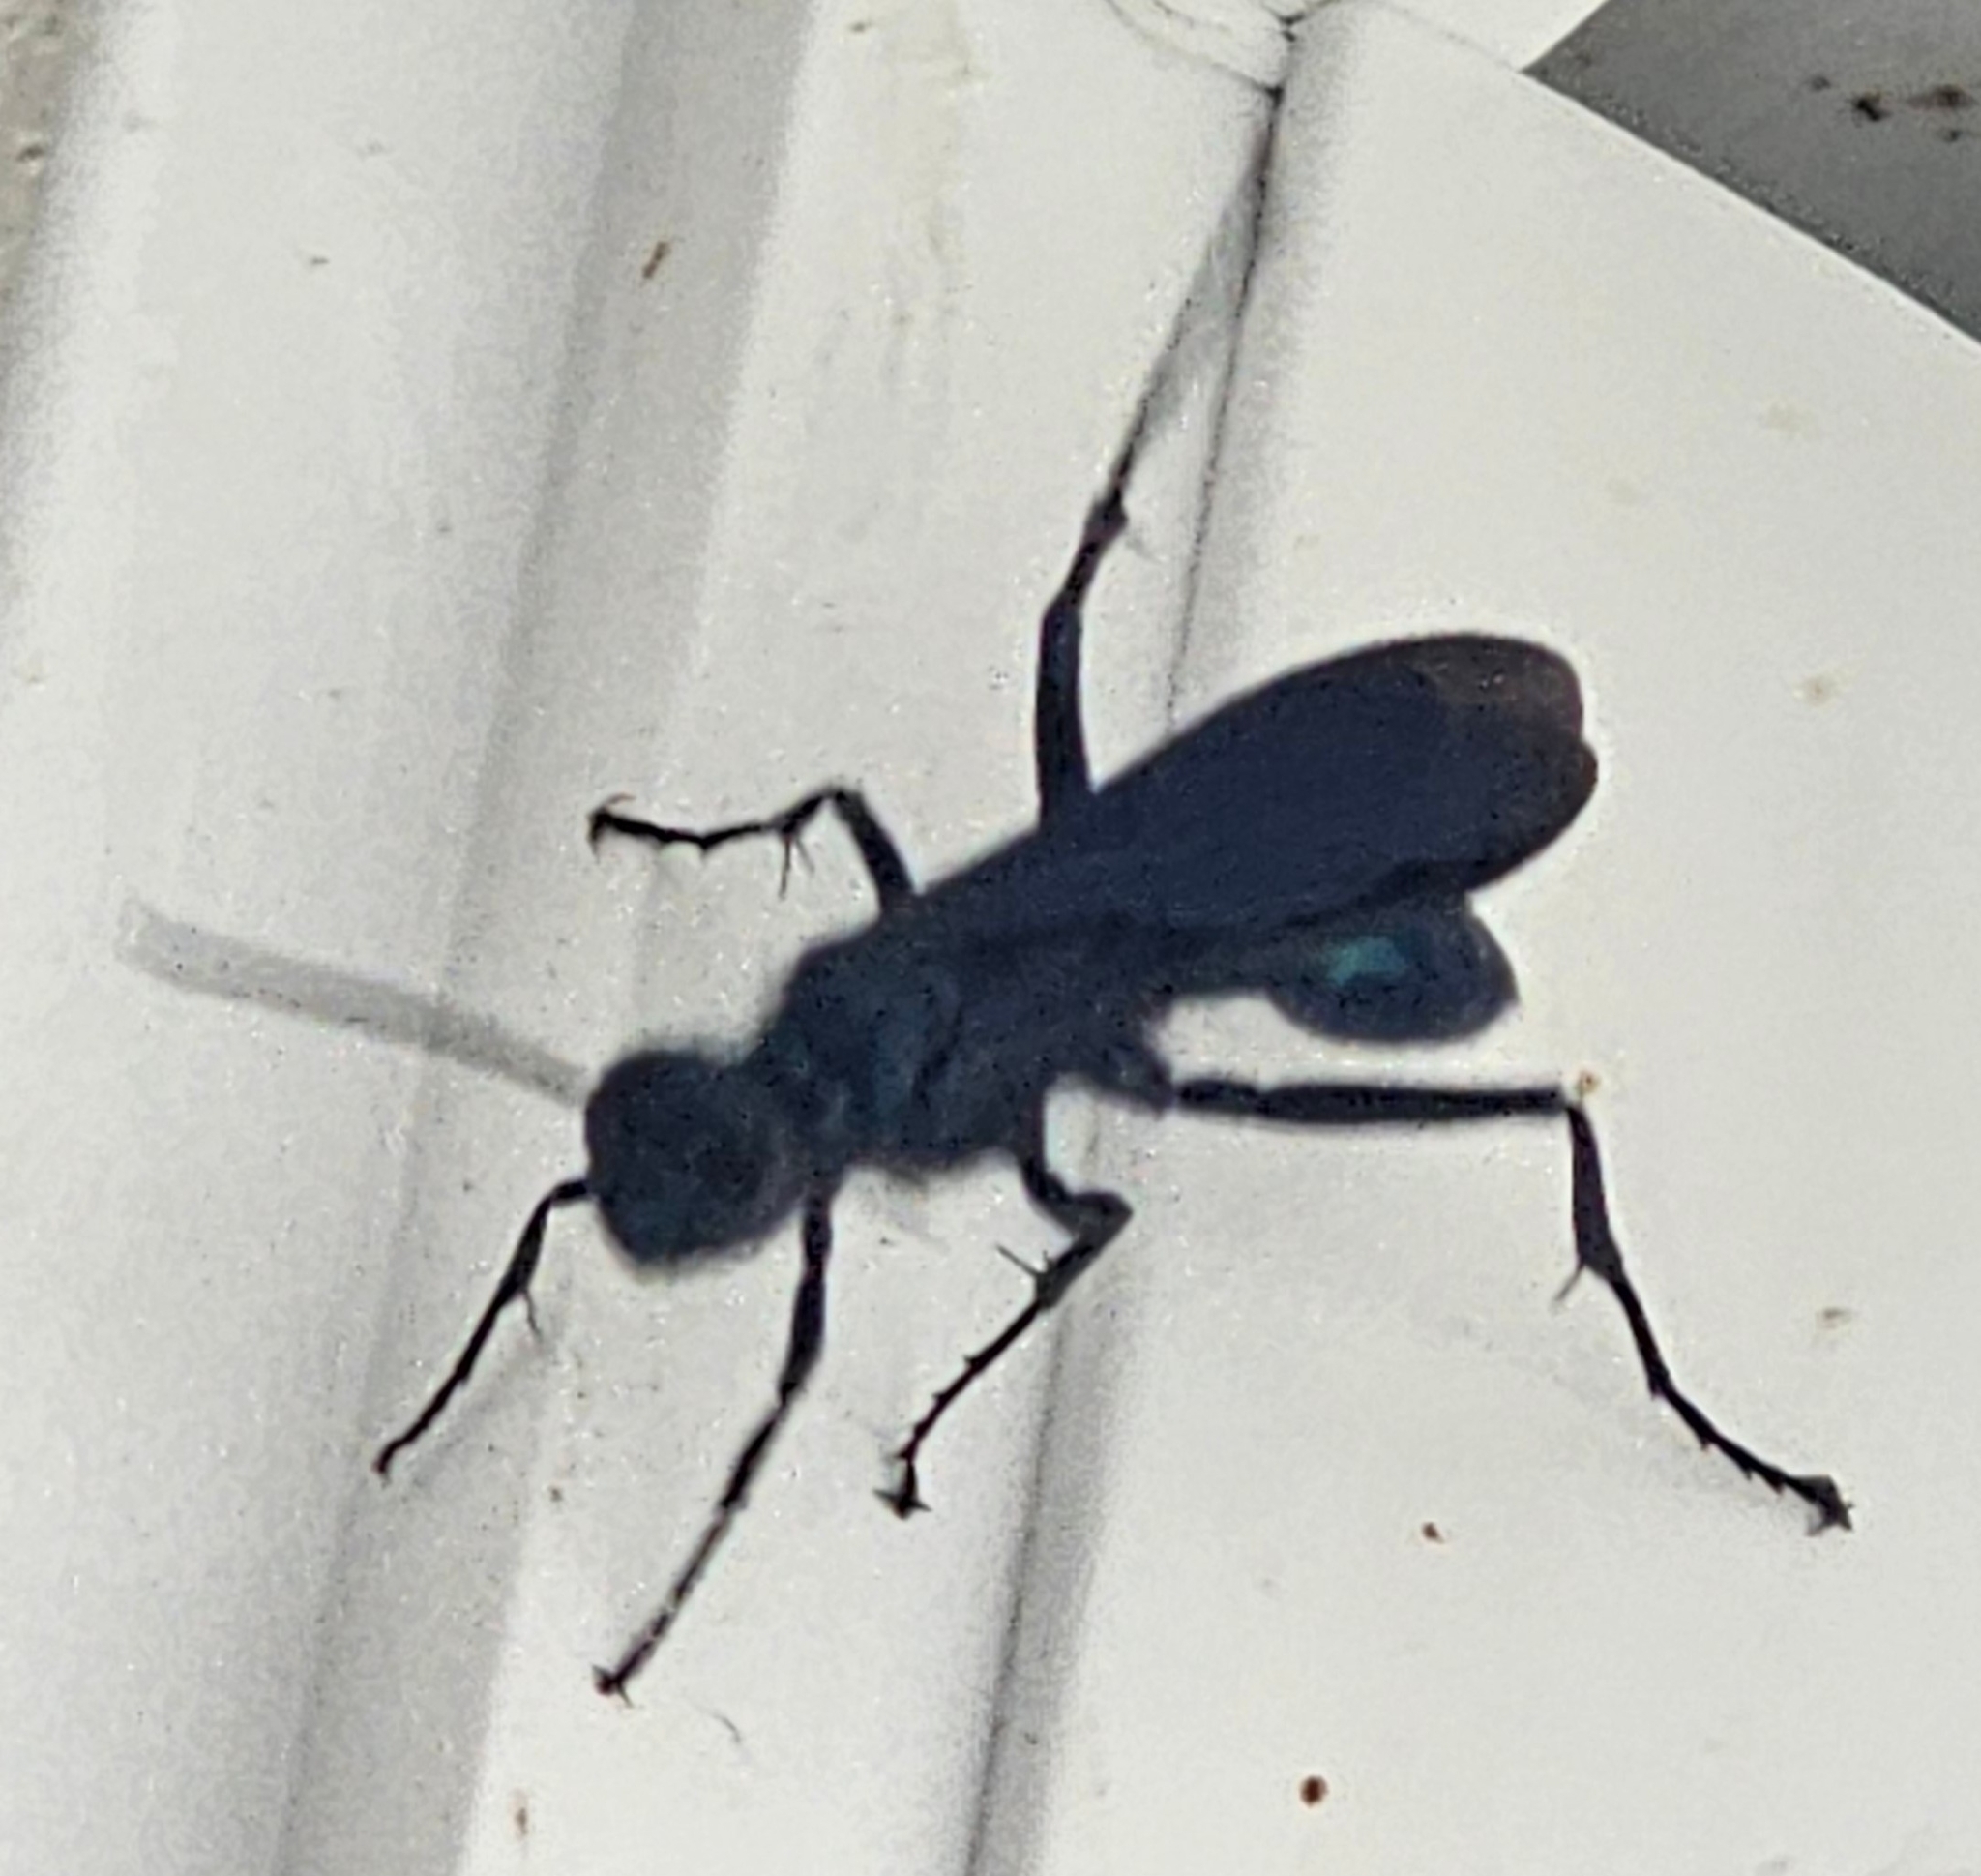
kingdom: Animalia
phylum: Arthropoda
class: Insecta
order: Hymenoptera
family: Sphecidae
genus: Chalybion
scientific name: Chalybion californicum
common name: Mud dauber
